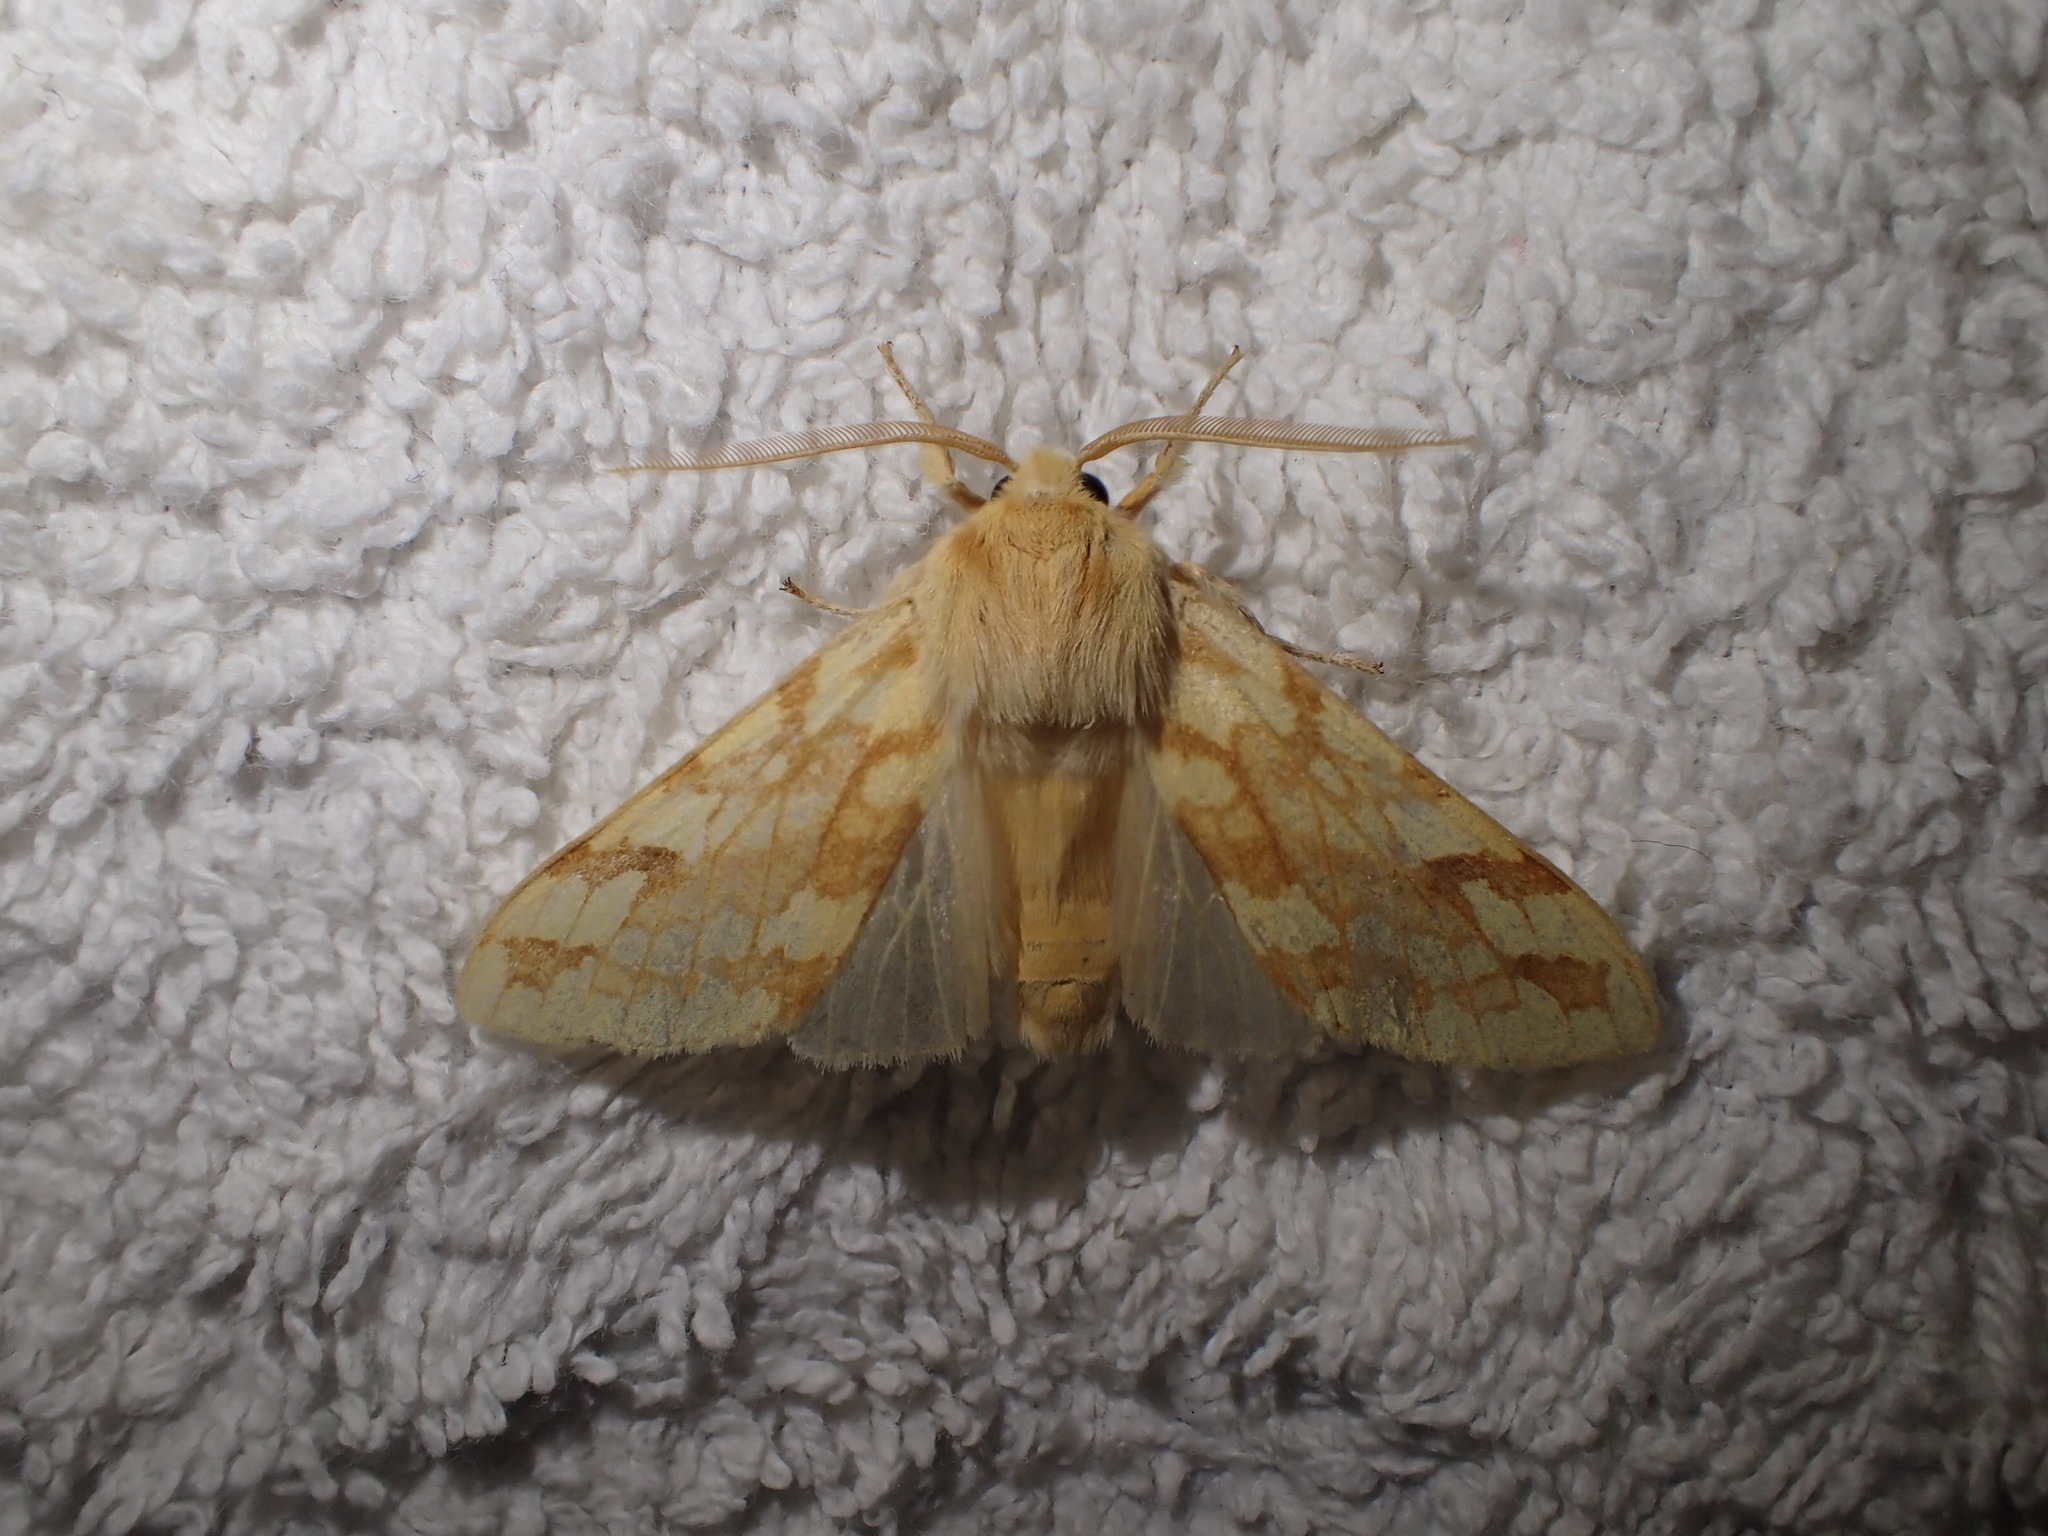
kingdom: Animalia
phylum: Arthropoda
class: Insecta
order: Lepidoptera
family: Erebidae
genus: Lophocampa
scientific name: Lophocampa maculata
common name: Spotted tussock moth
